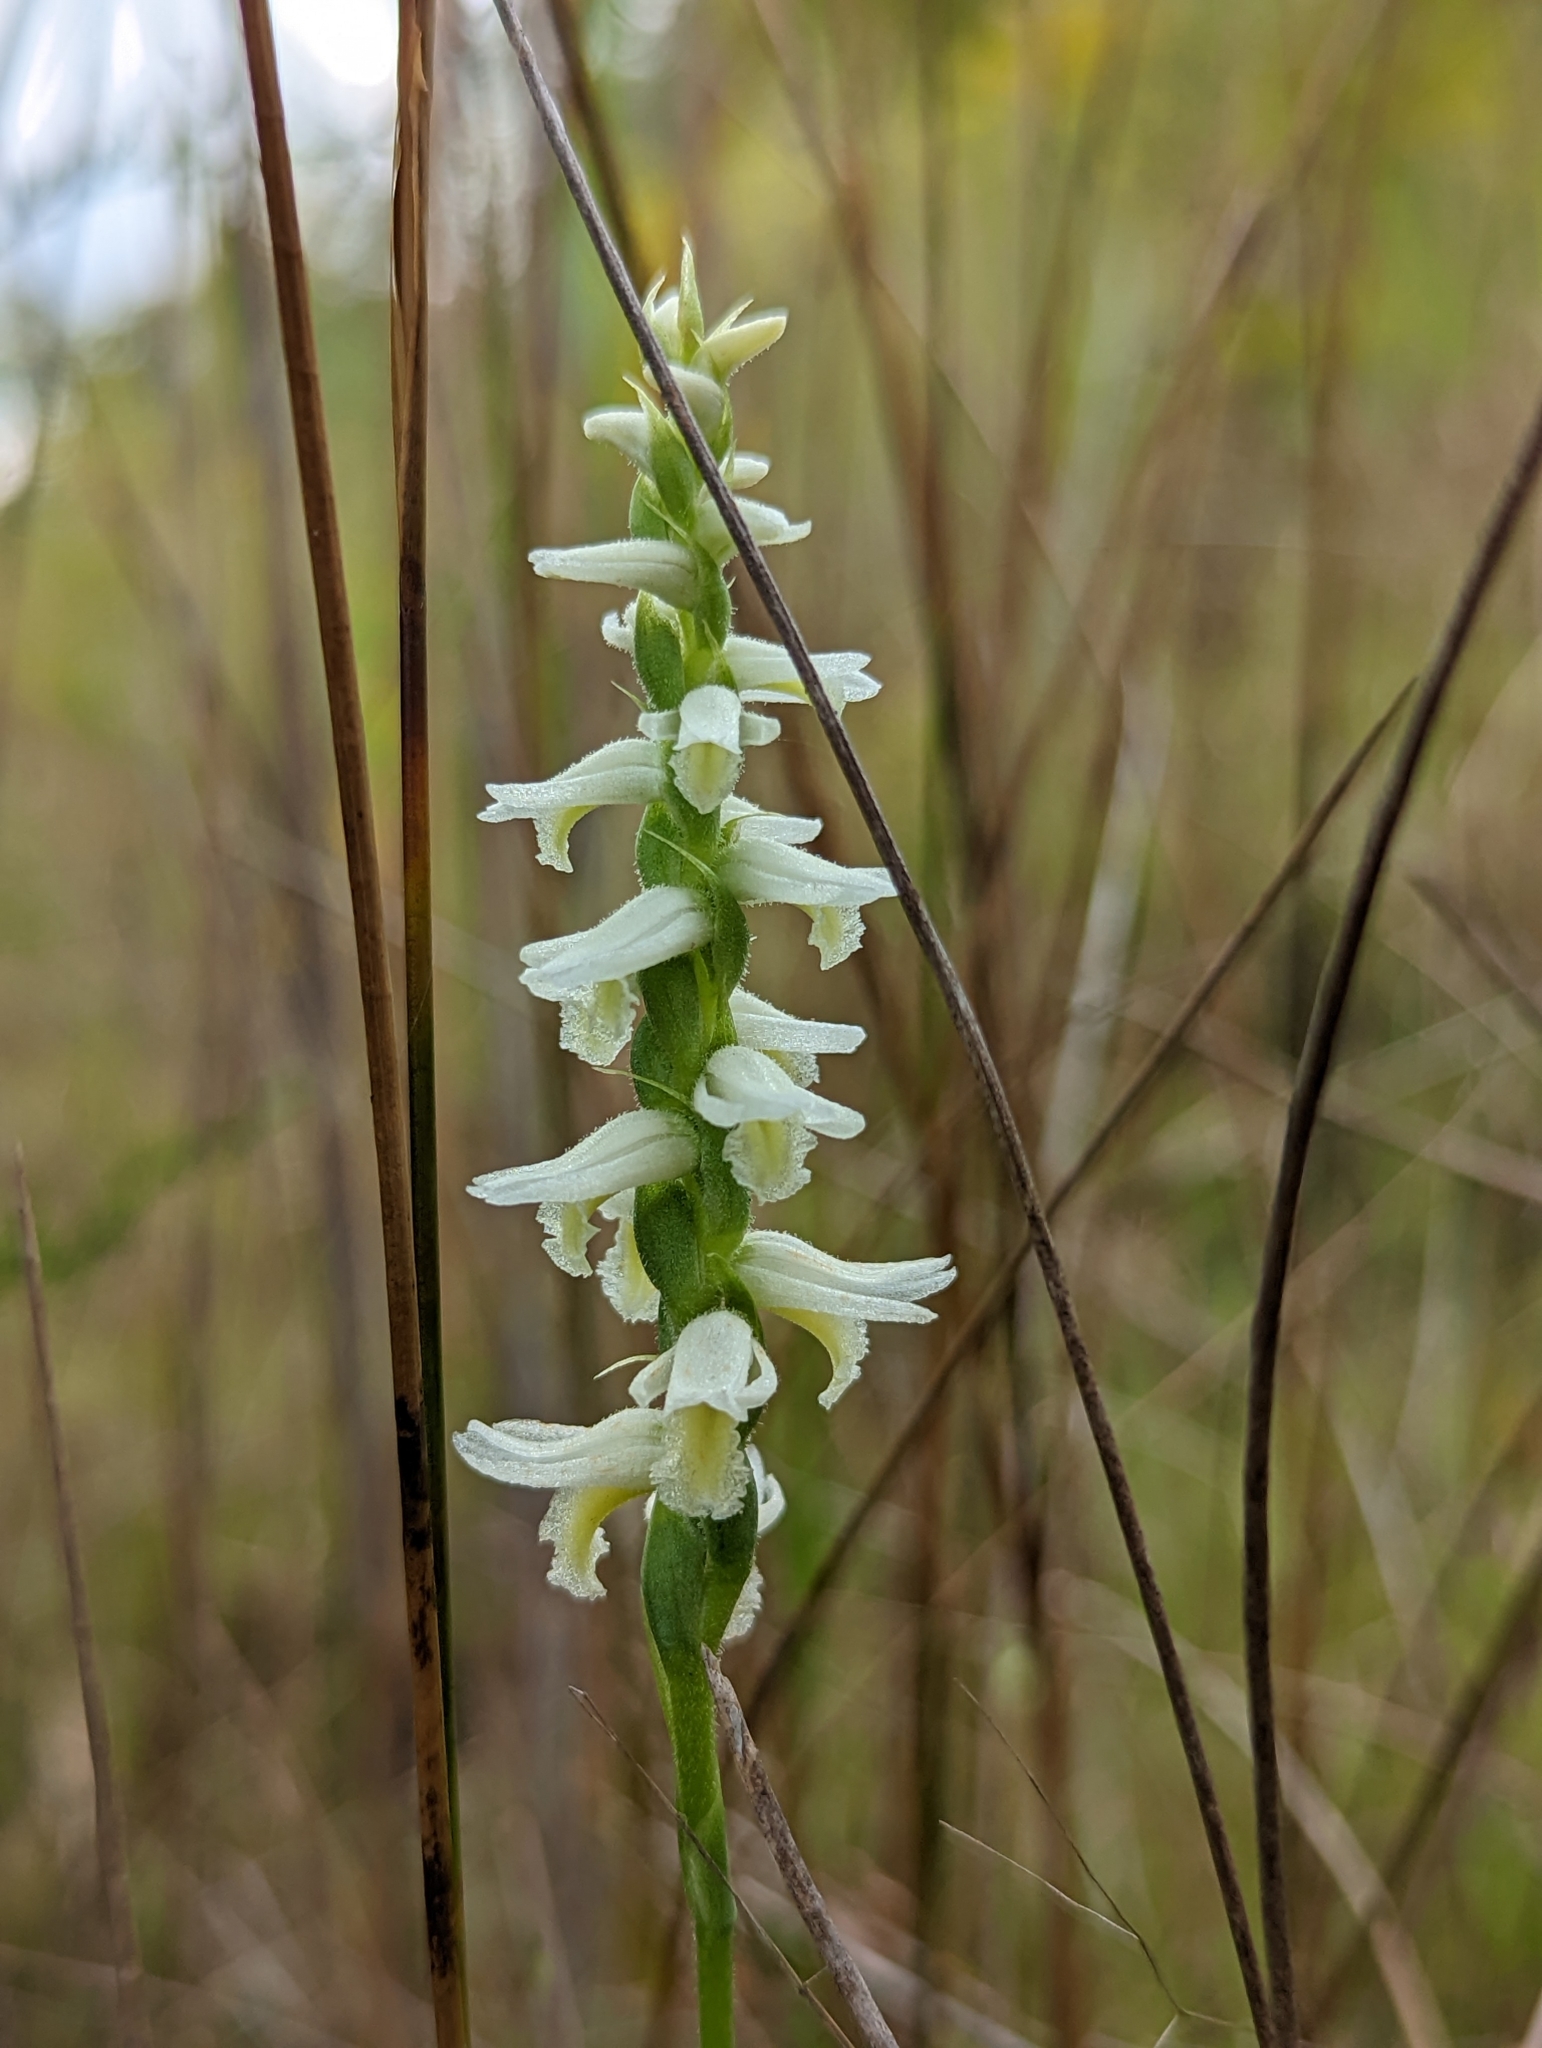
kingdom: Plantae
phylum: Tracheophyta
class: Liliopsida
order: Asparagales
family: Orchidaceae
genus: Spiranthes
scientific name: Spiranthes magnicamporum
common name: Great plains ladies'-tresses
